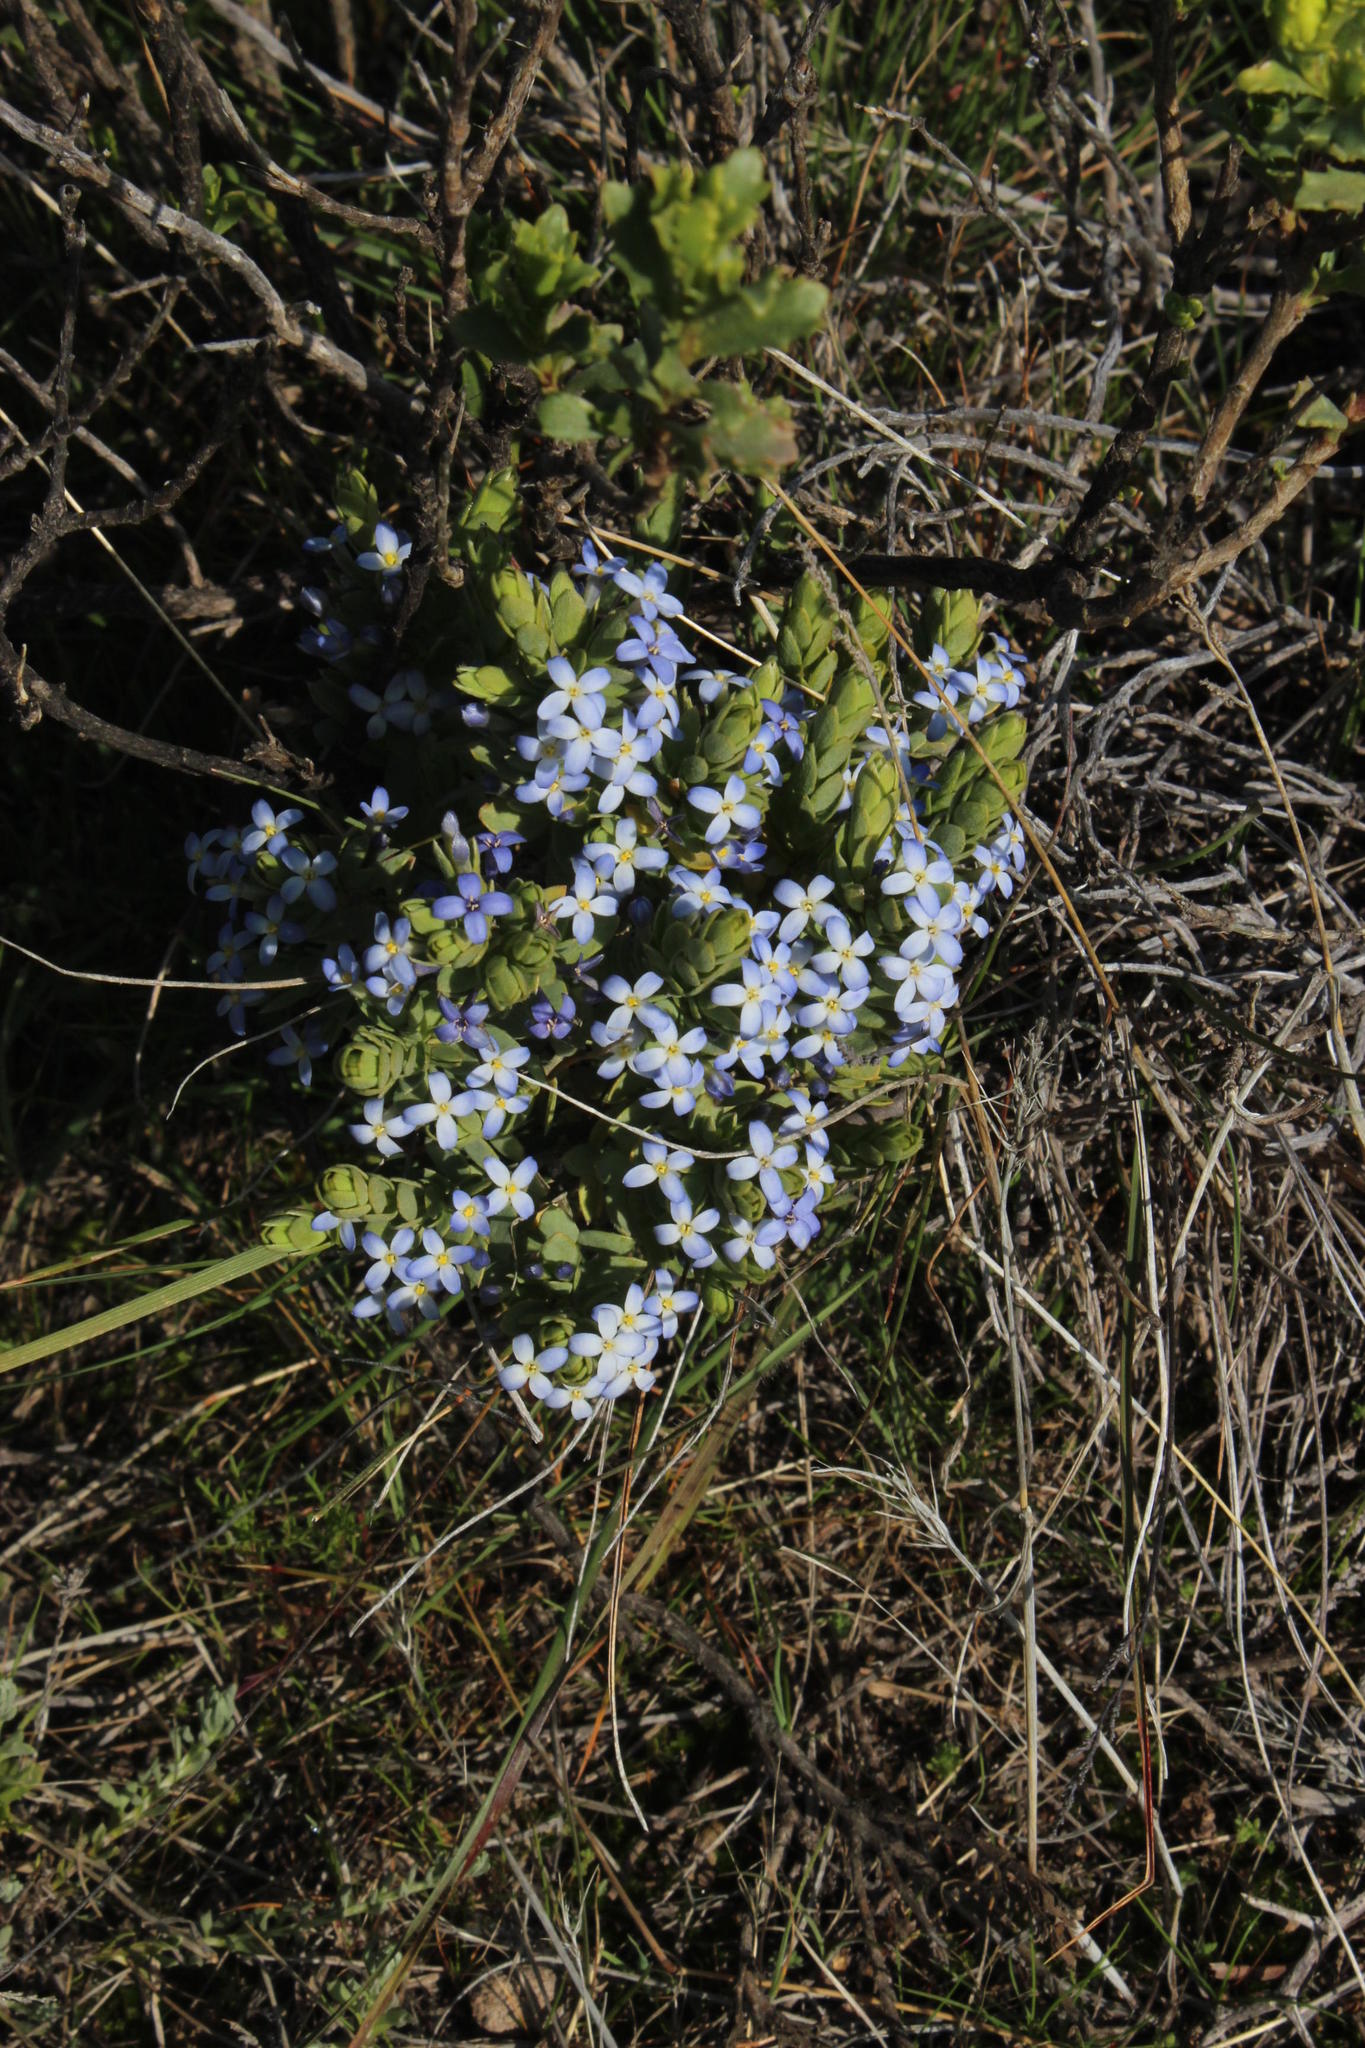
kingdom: Plantae
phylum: Tracheophyta
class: Magnoliopsida
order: Malvales
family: Thymelaeaceae
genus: Gnidia
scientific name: Gnidia cyanea
